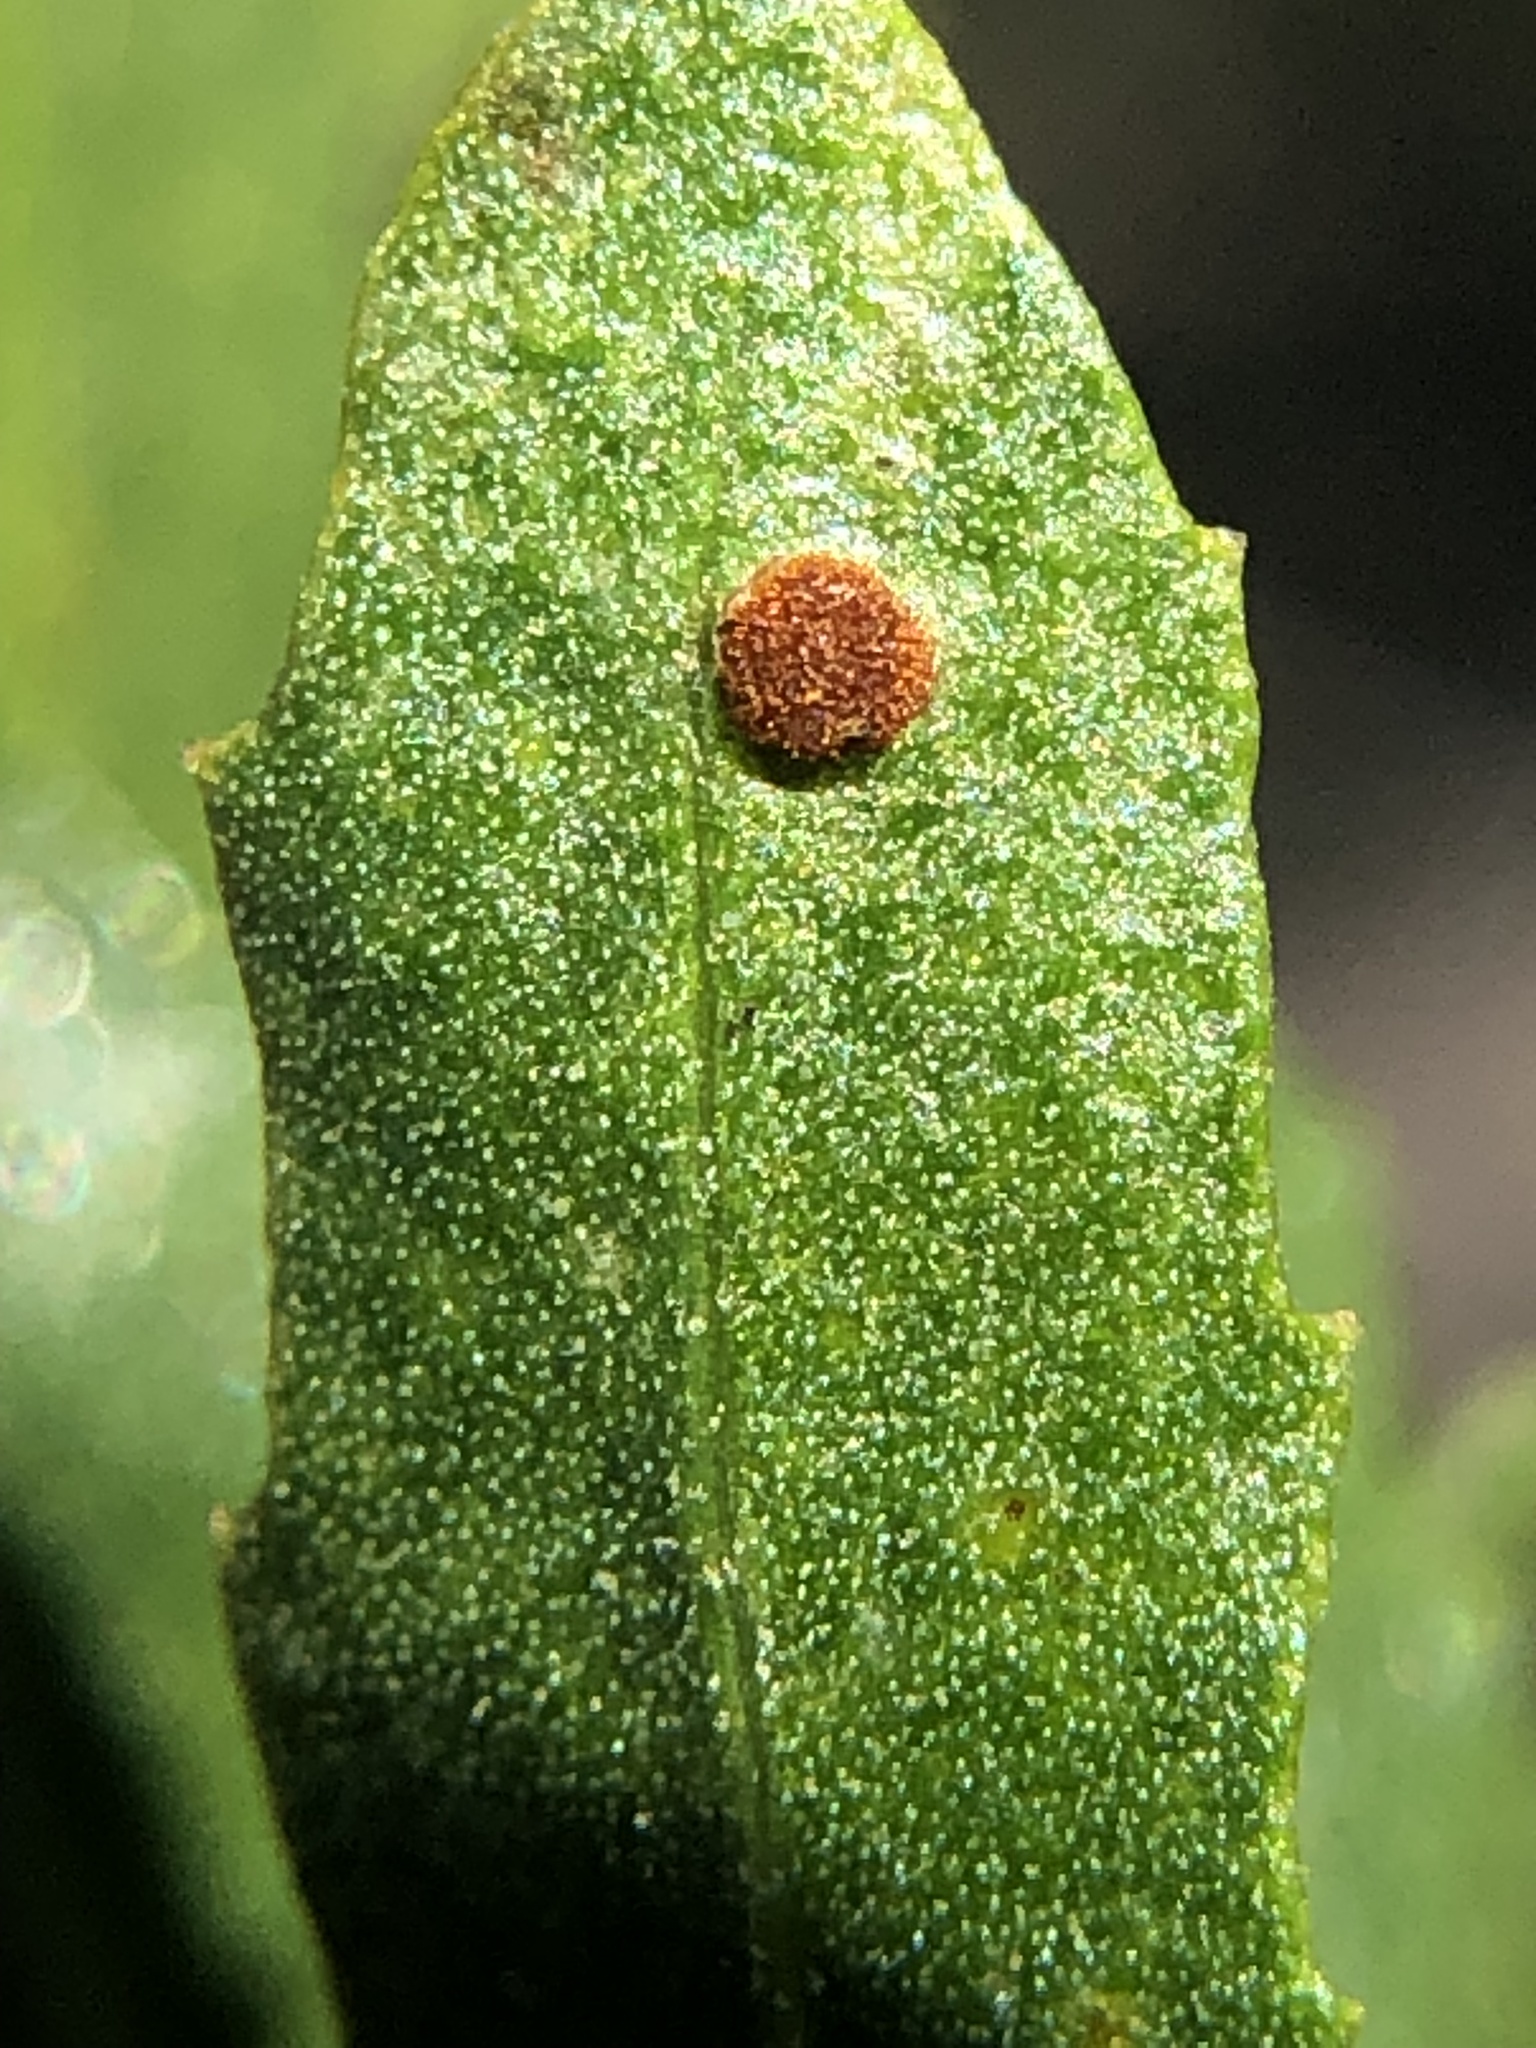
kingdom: Fungi
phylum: Basidiomycota
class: Pucciniomycetes
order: Pucciniales
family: Pucciniaceae
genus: Eriosporangium
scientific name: Eriosporangium evadens
